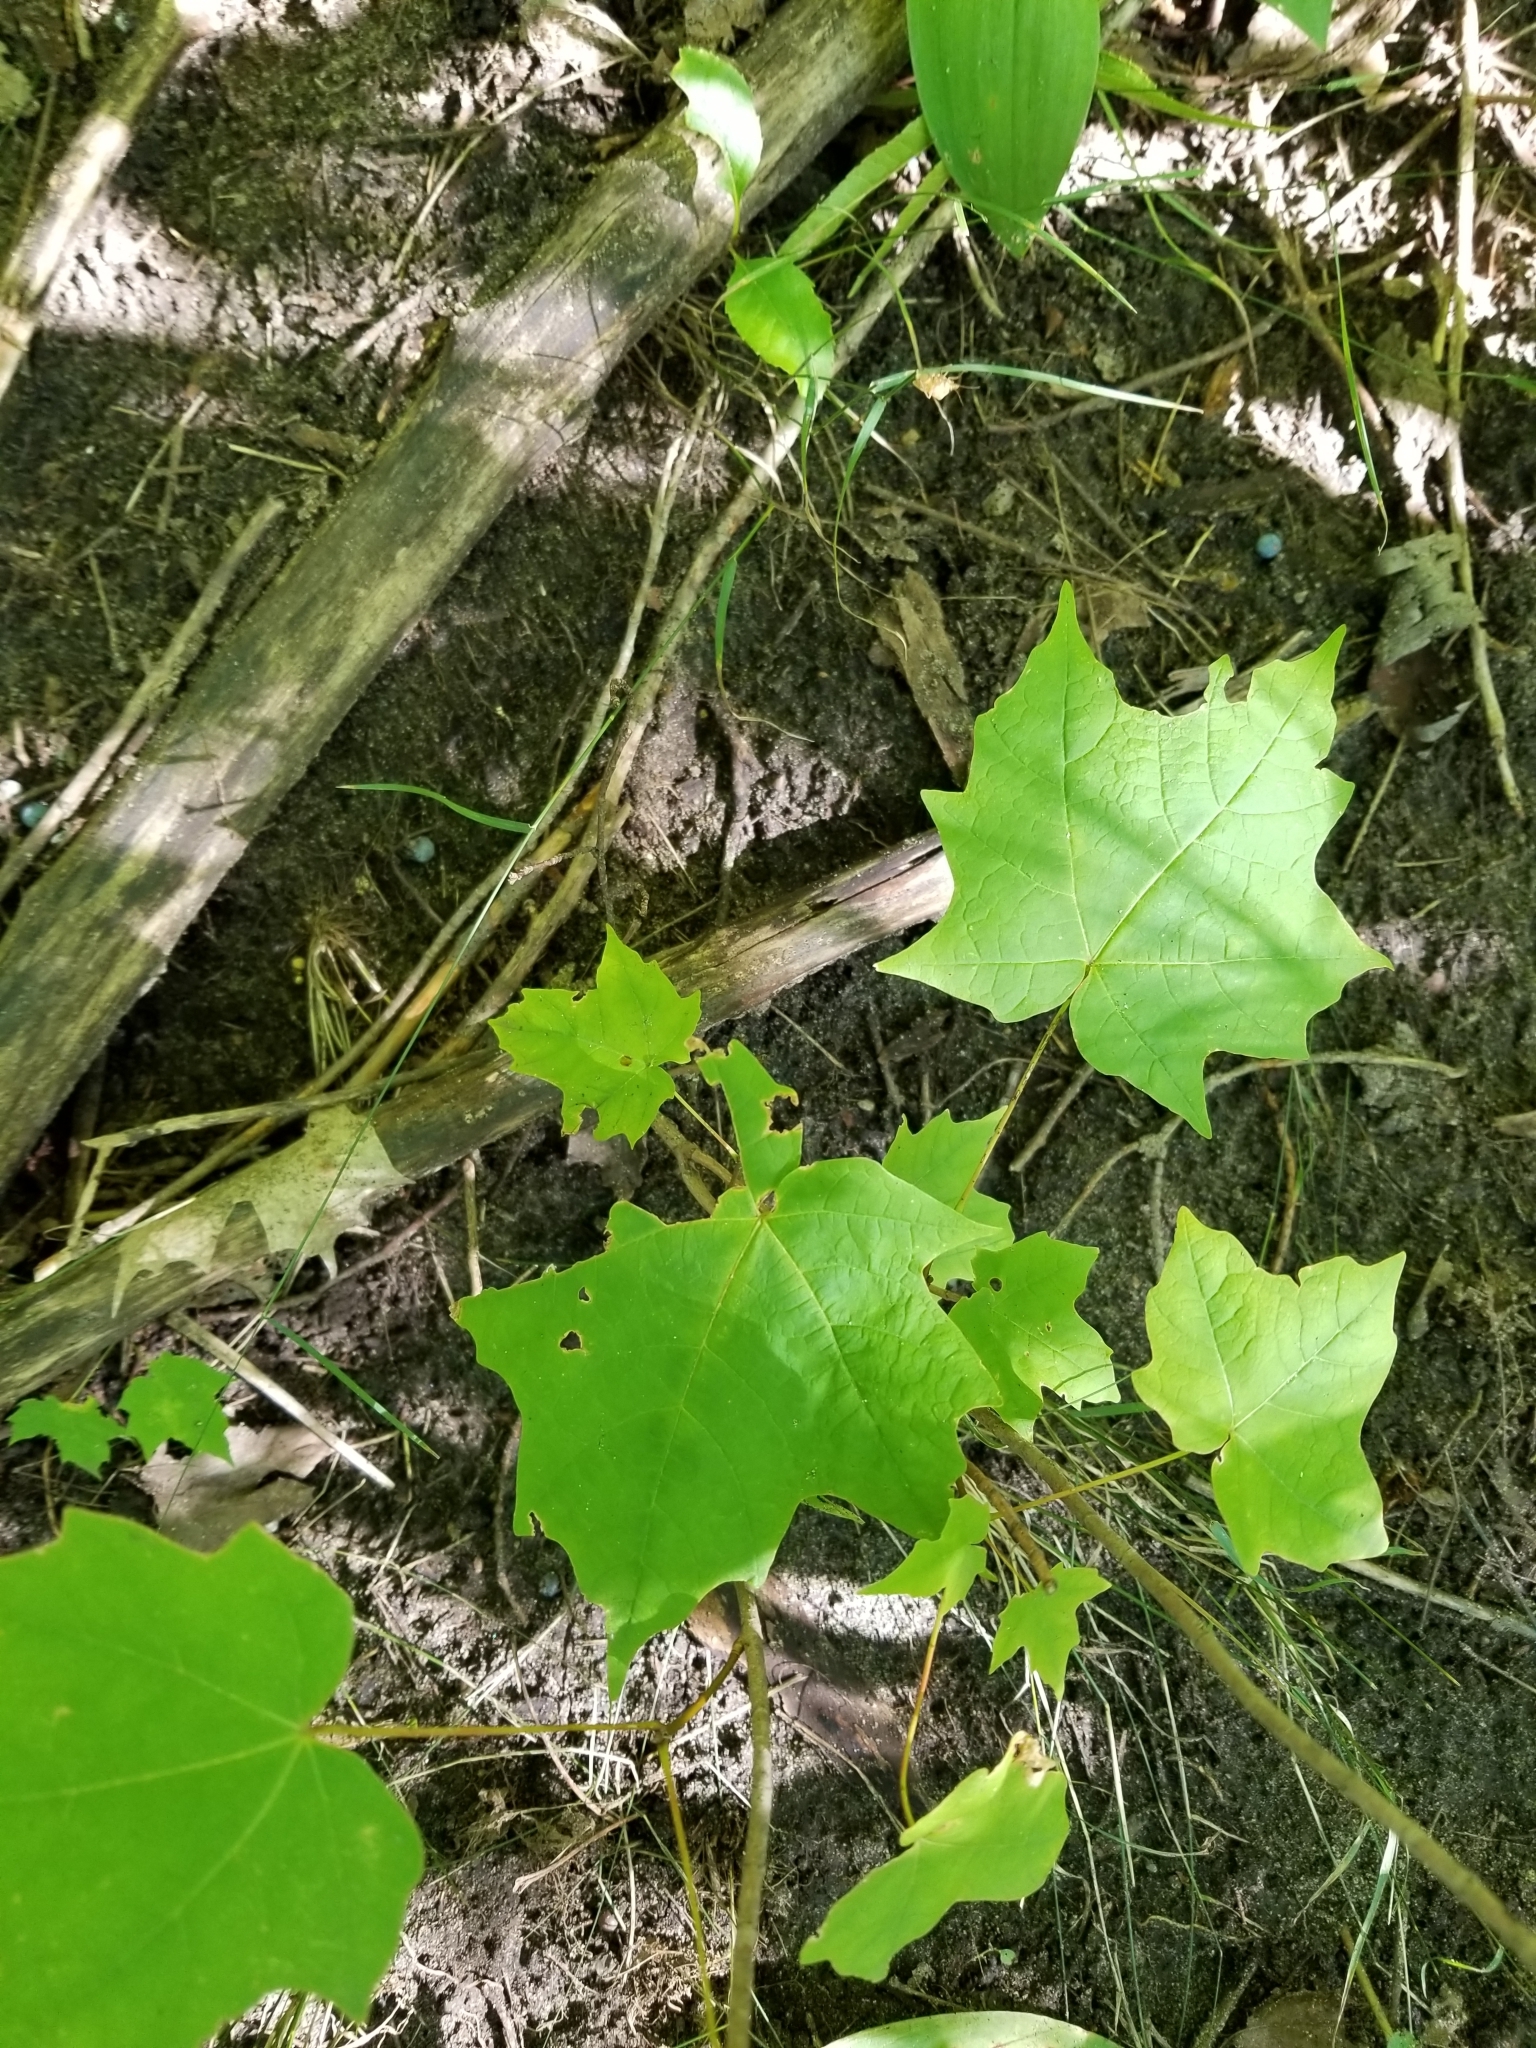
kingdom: Plantae
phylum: Tracheophyta
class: Magnoliopsida
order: Sapindales
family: Sapindaceae
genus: Acer
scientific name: Acer saccharum
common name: Sugar maple
